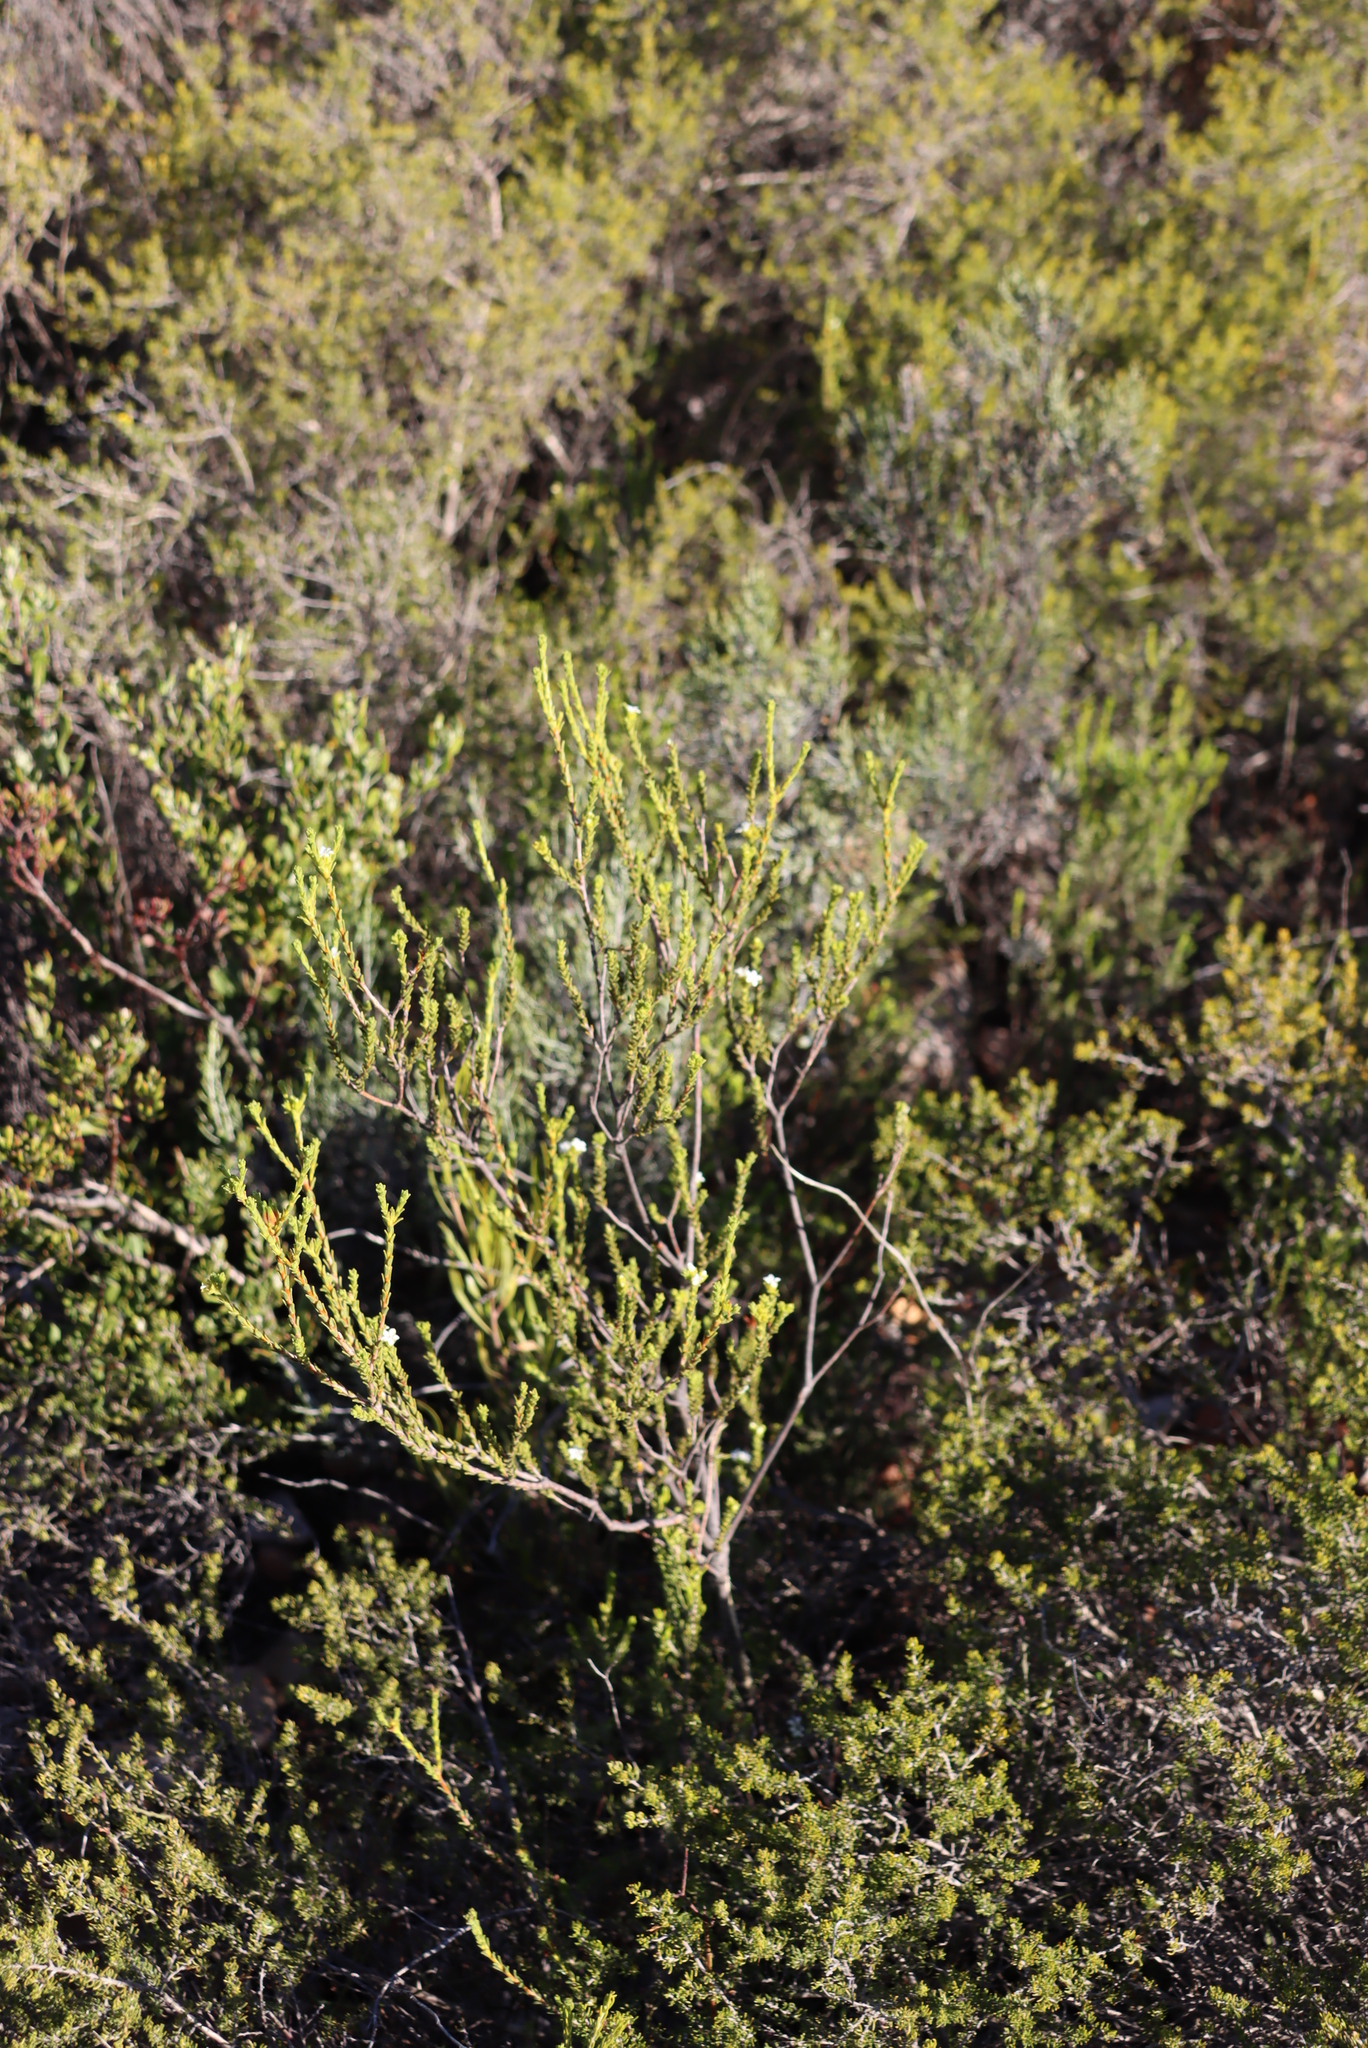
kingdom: Plantae
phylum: Tracheophyta
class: Magnoliopsida
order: Sapindales
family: Rutaceae
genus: Euchaetis
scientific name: Euchaetis vallis-simiae
